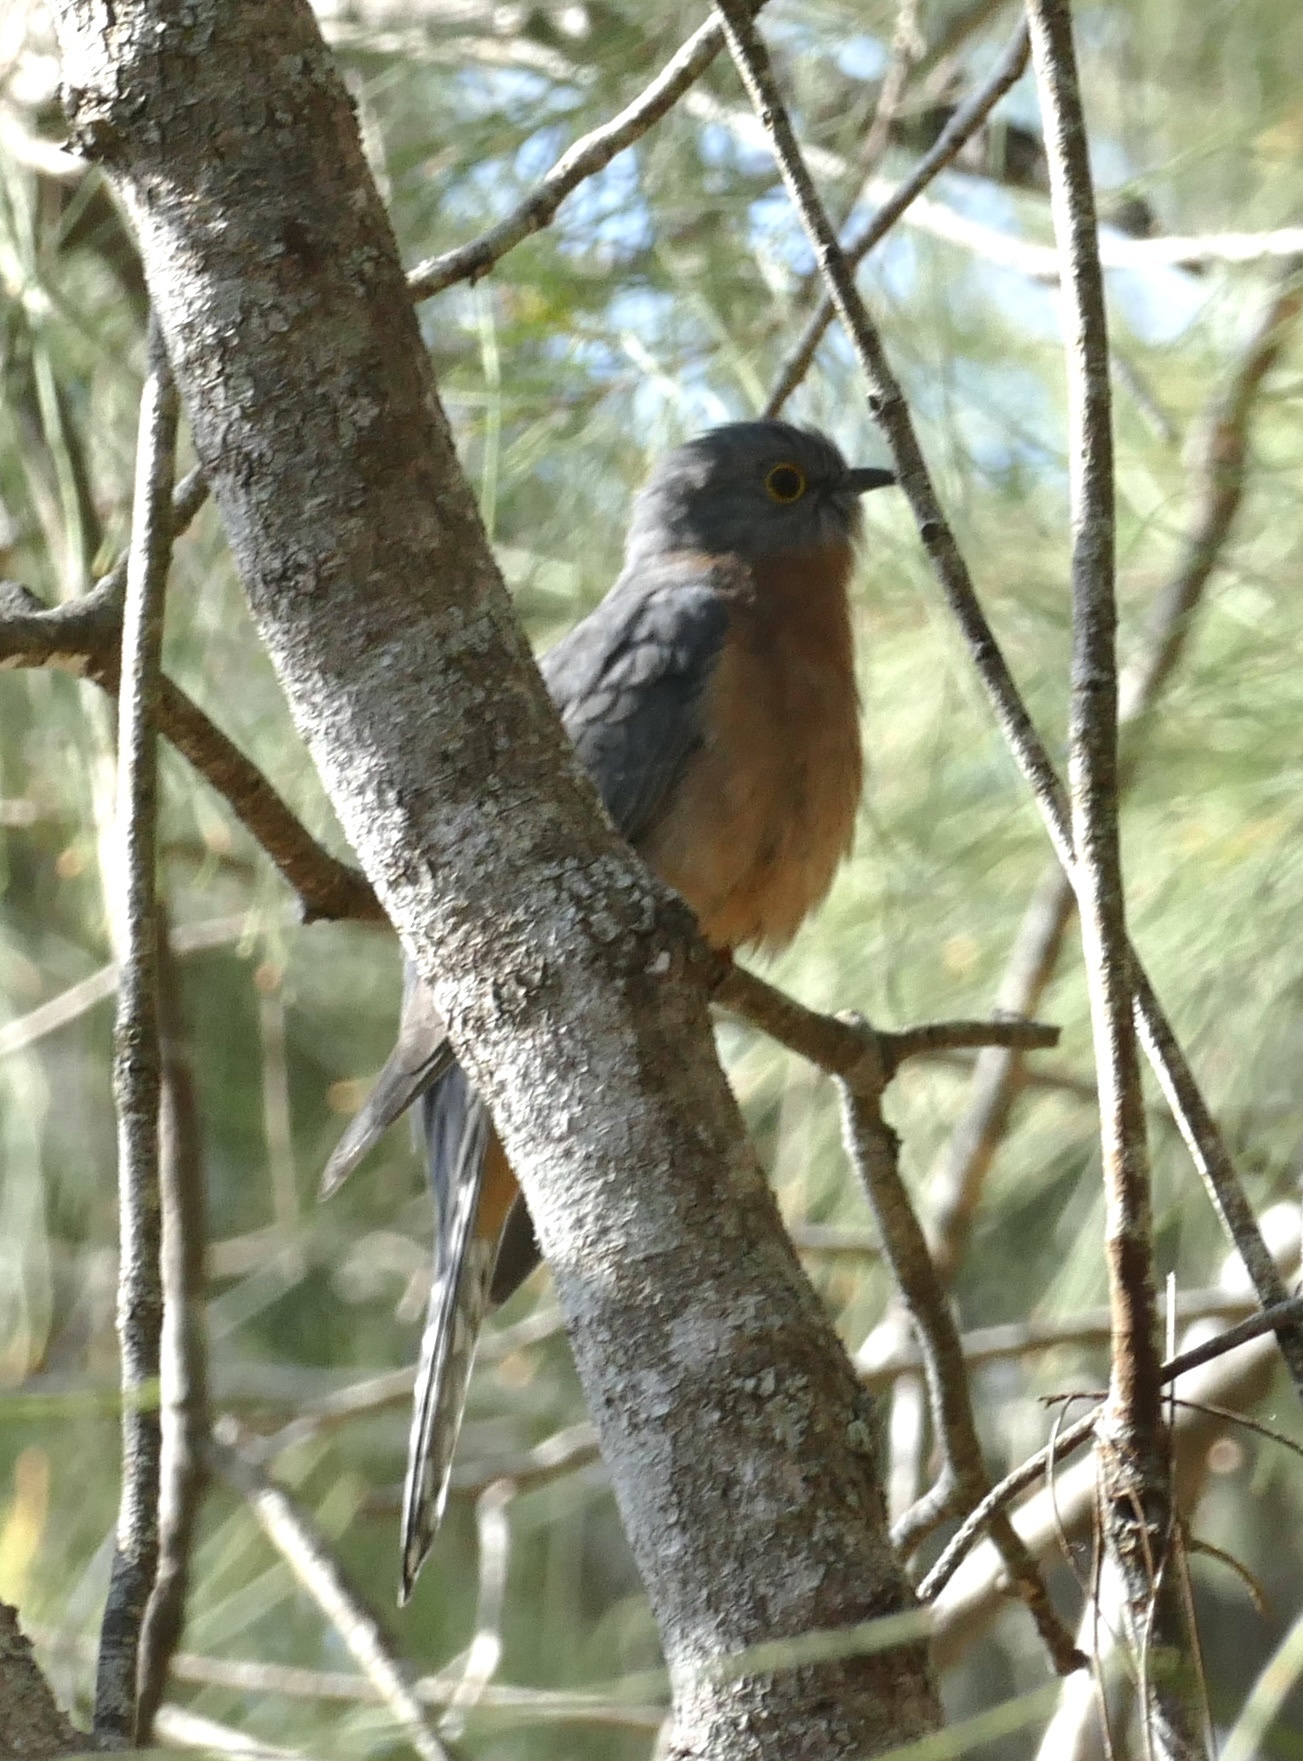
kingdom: Animalia
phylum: Chordata
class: Aves
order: Cuculiformes
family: Cuculidae
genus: Cacomantis
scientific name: Cacomantis flabelliformis
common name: Fan-tailed cuckoo
